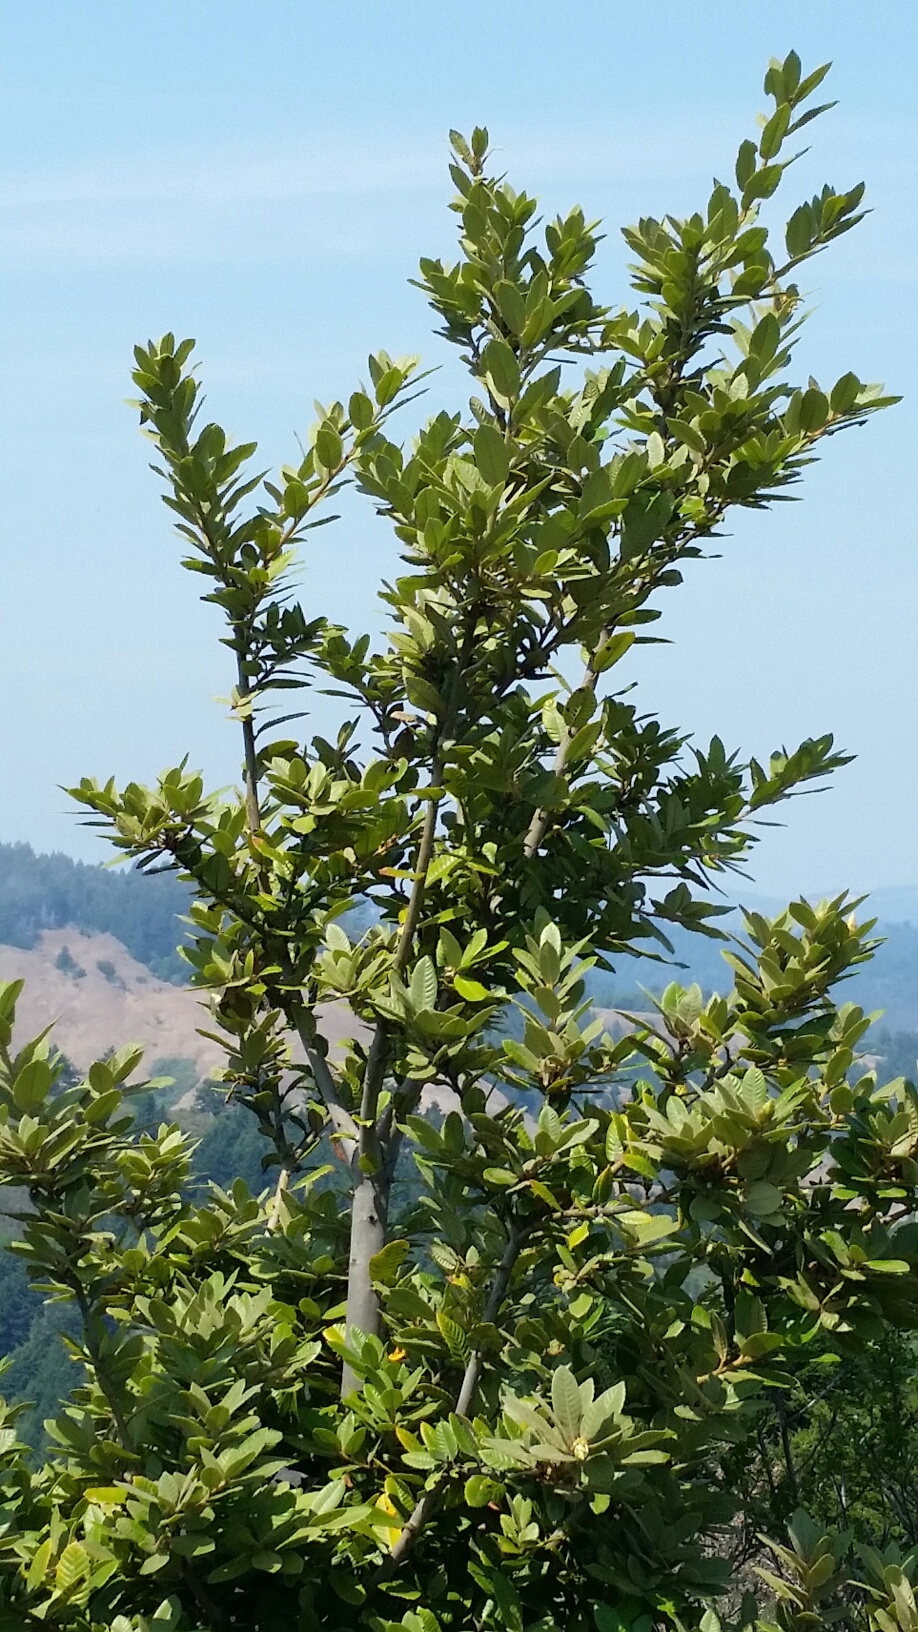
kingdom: Plantae
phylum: Tracheophyta
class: Magnoliopsida
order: Fagales
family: Fagaceae
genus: Notholithocarpus
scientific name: Notholithocarpus densiflorus
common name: Tan bark oak
